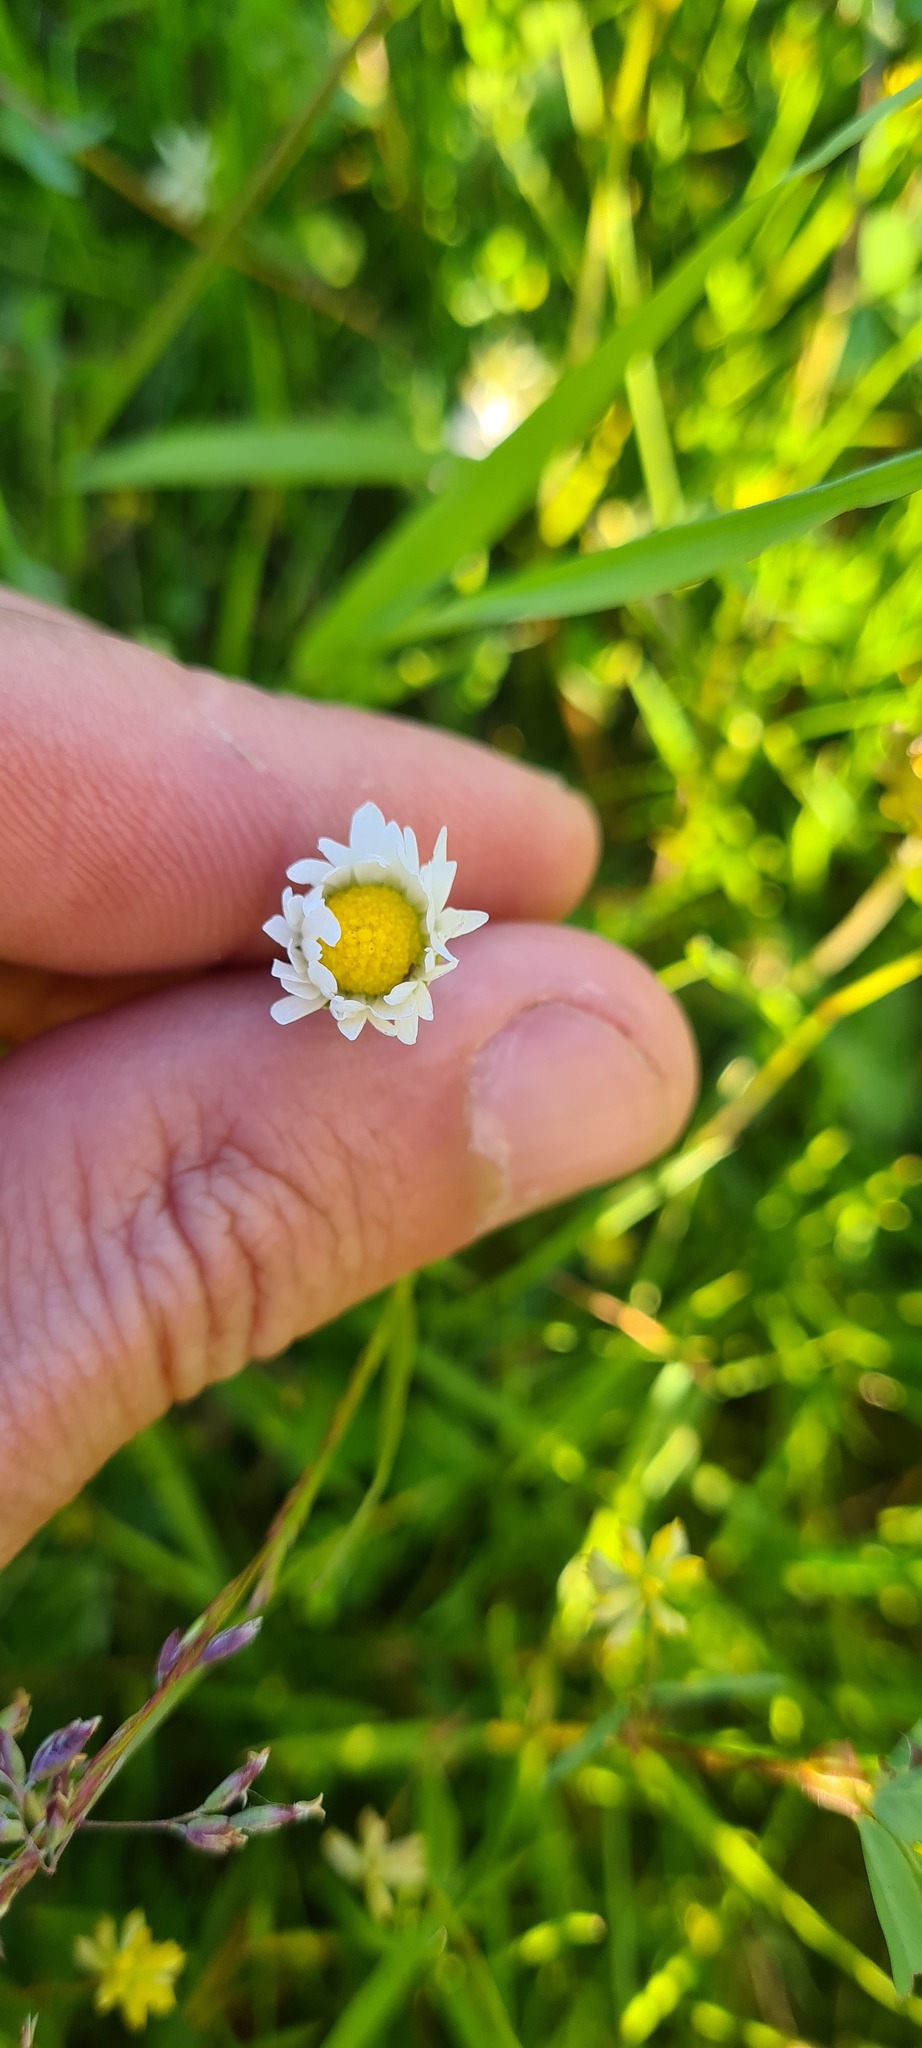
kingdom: Plantae
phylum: Tracheophyta
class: Magnoliopsida
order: Asterales
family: Asteraceae
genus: Bellis
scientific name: Bellis perennis
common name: Lawndaisy
